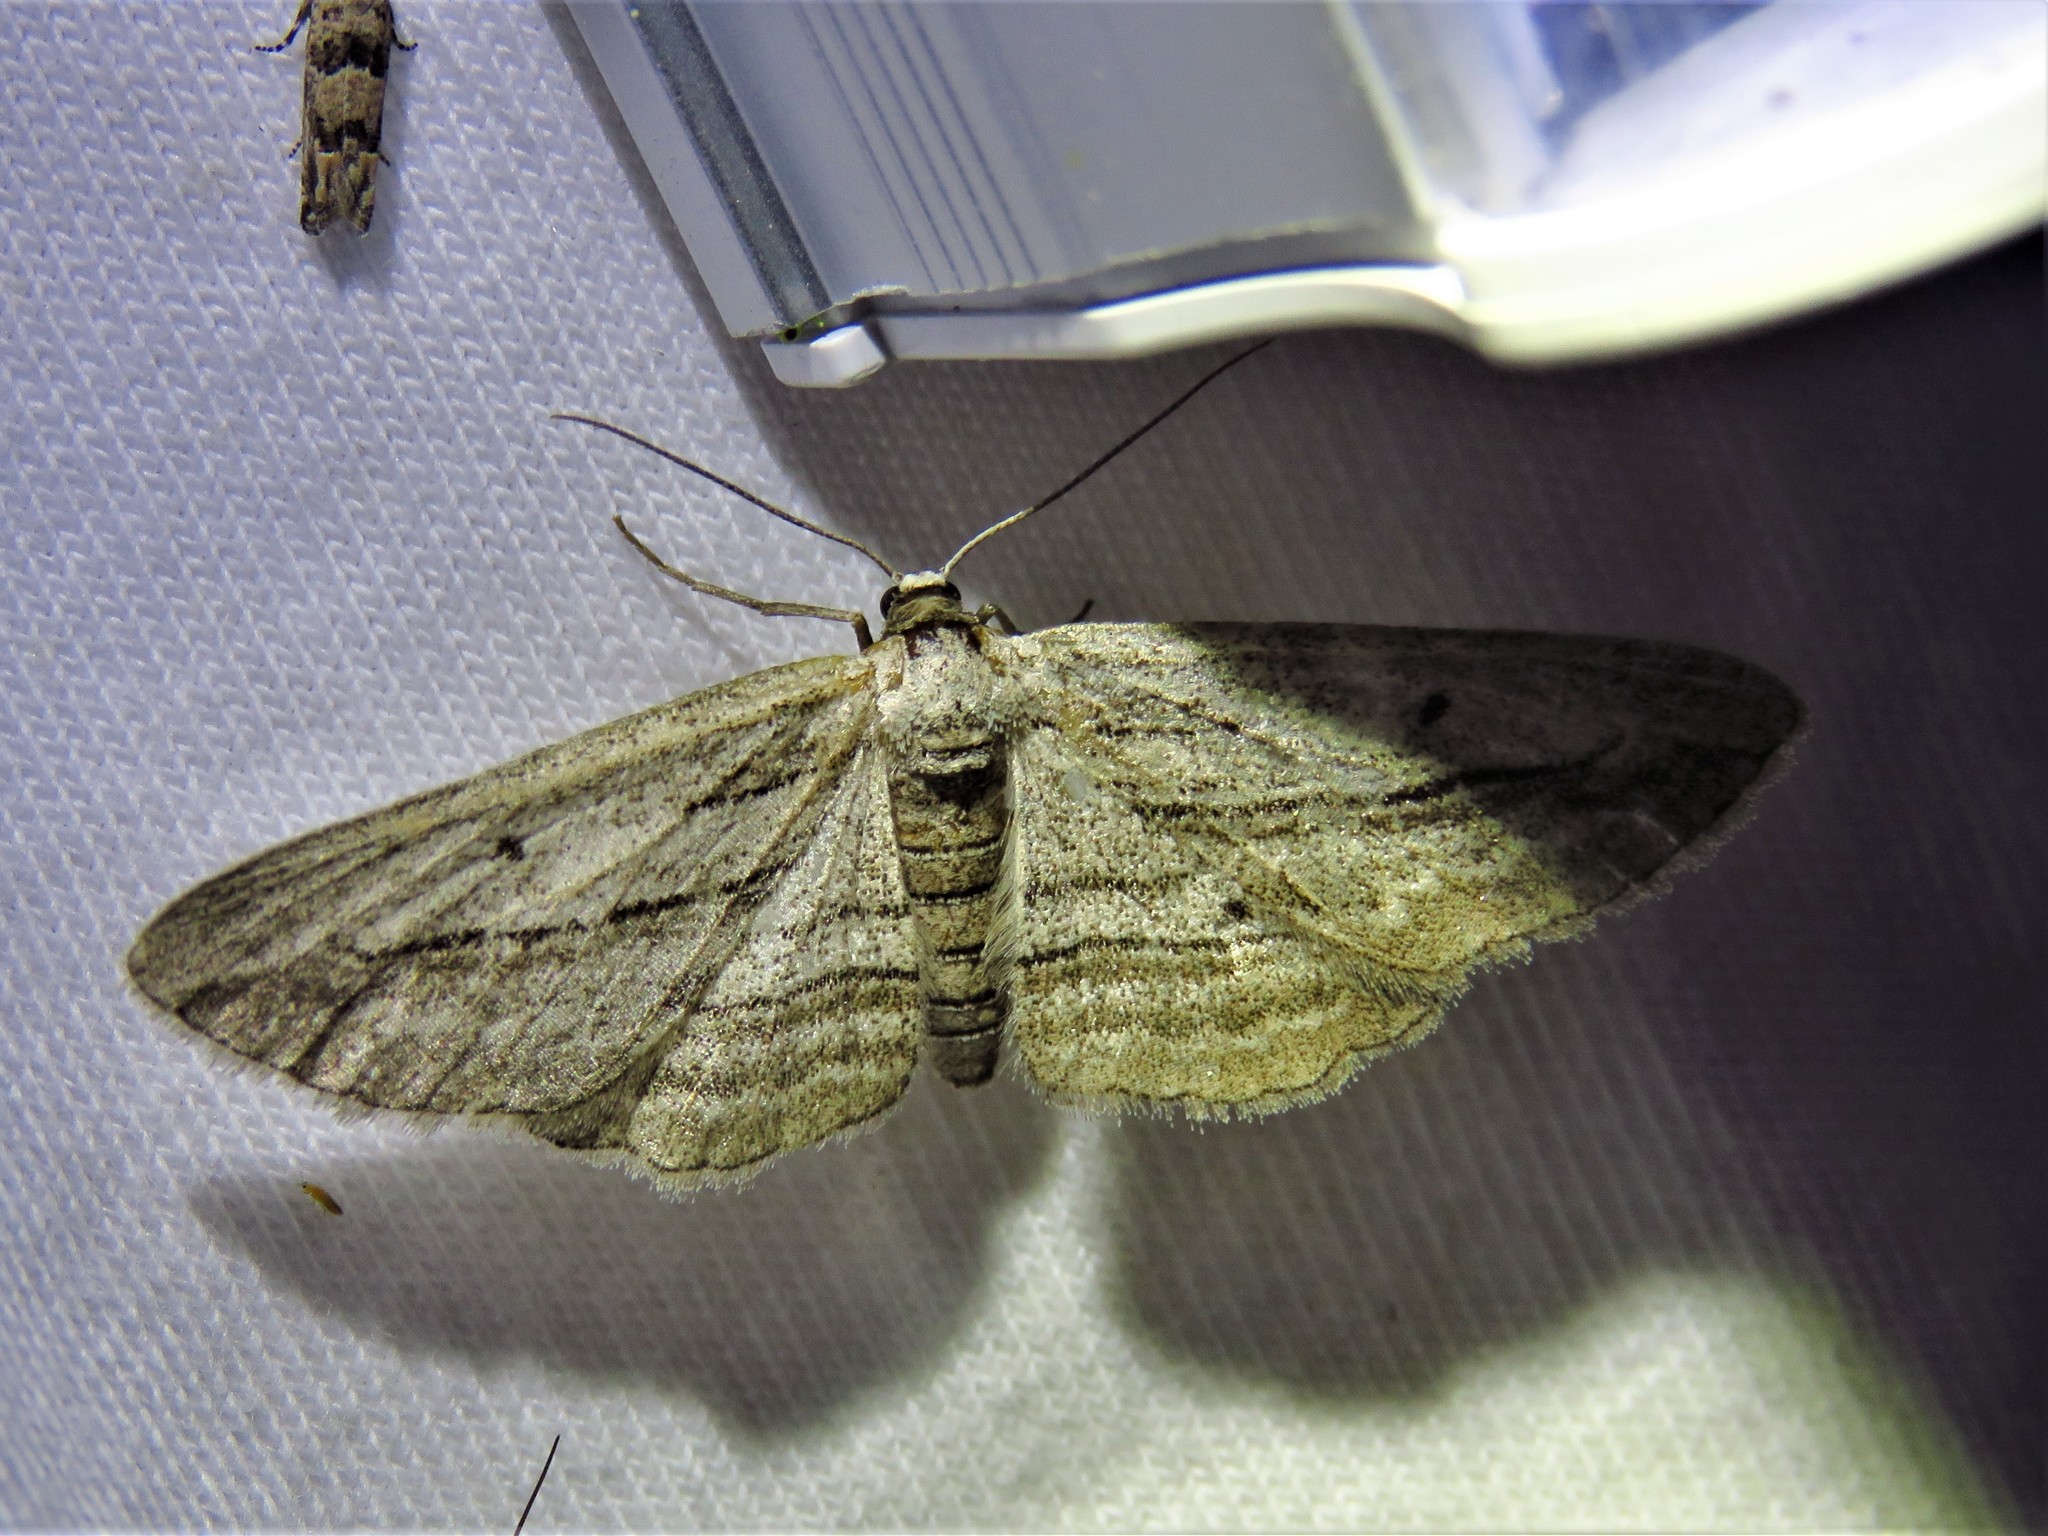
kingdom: Animalia
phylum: Arthropoda
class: Insecta
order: Lepidoptera
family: Geometridae
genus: Glena
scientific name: Glena quinquelinearia
